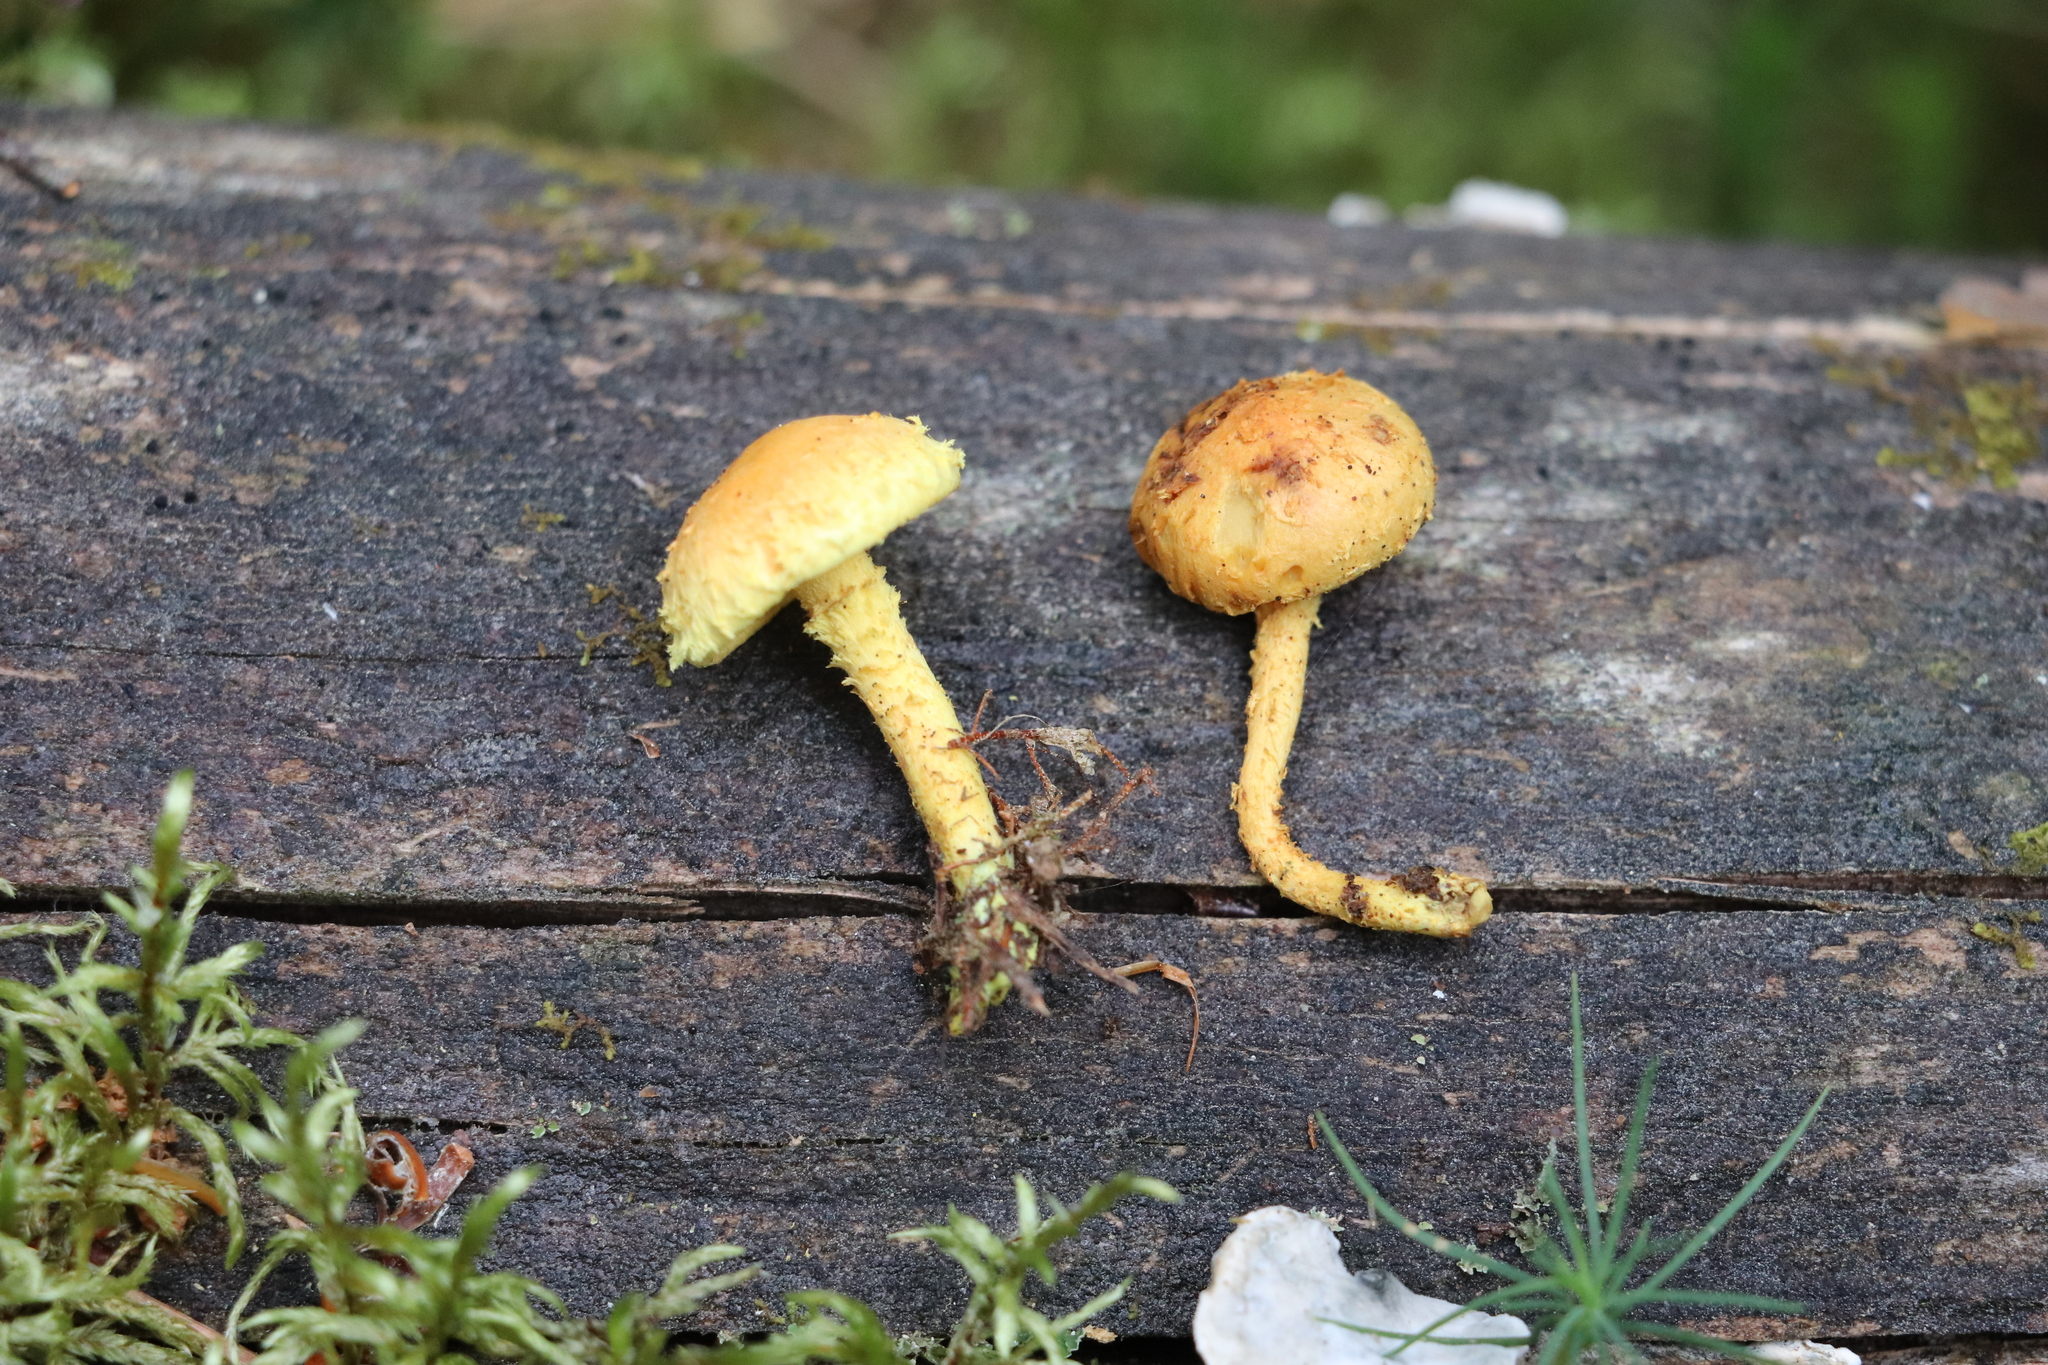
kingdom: Fungi
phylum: Basidiomycota
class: Agaricomycetes
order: Agaricales
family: Strophariaceae
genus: Pholiota
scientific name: Pholiota flammans
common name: Flaming scalycap
